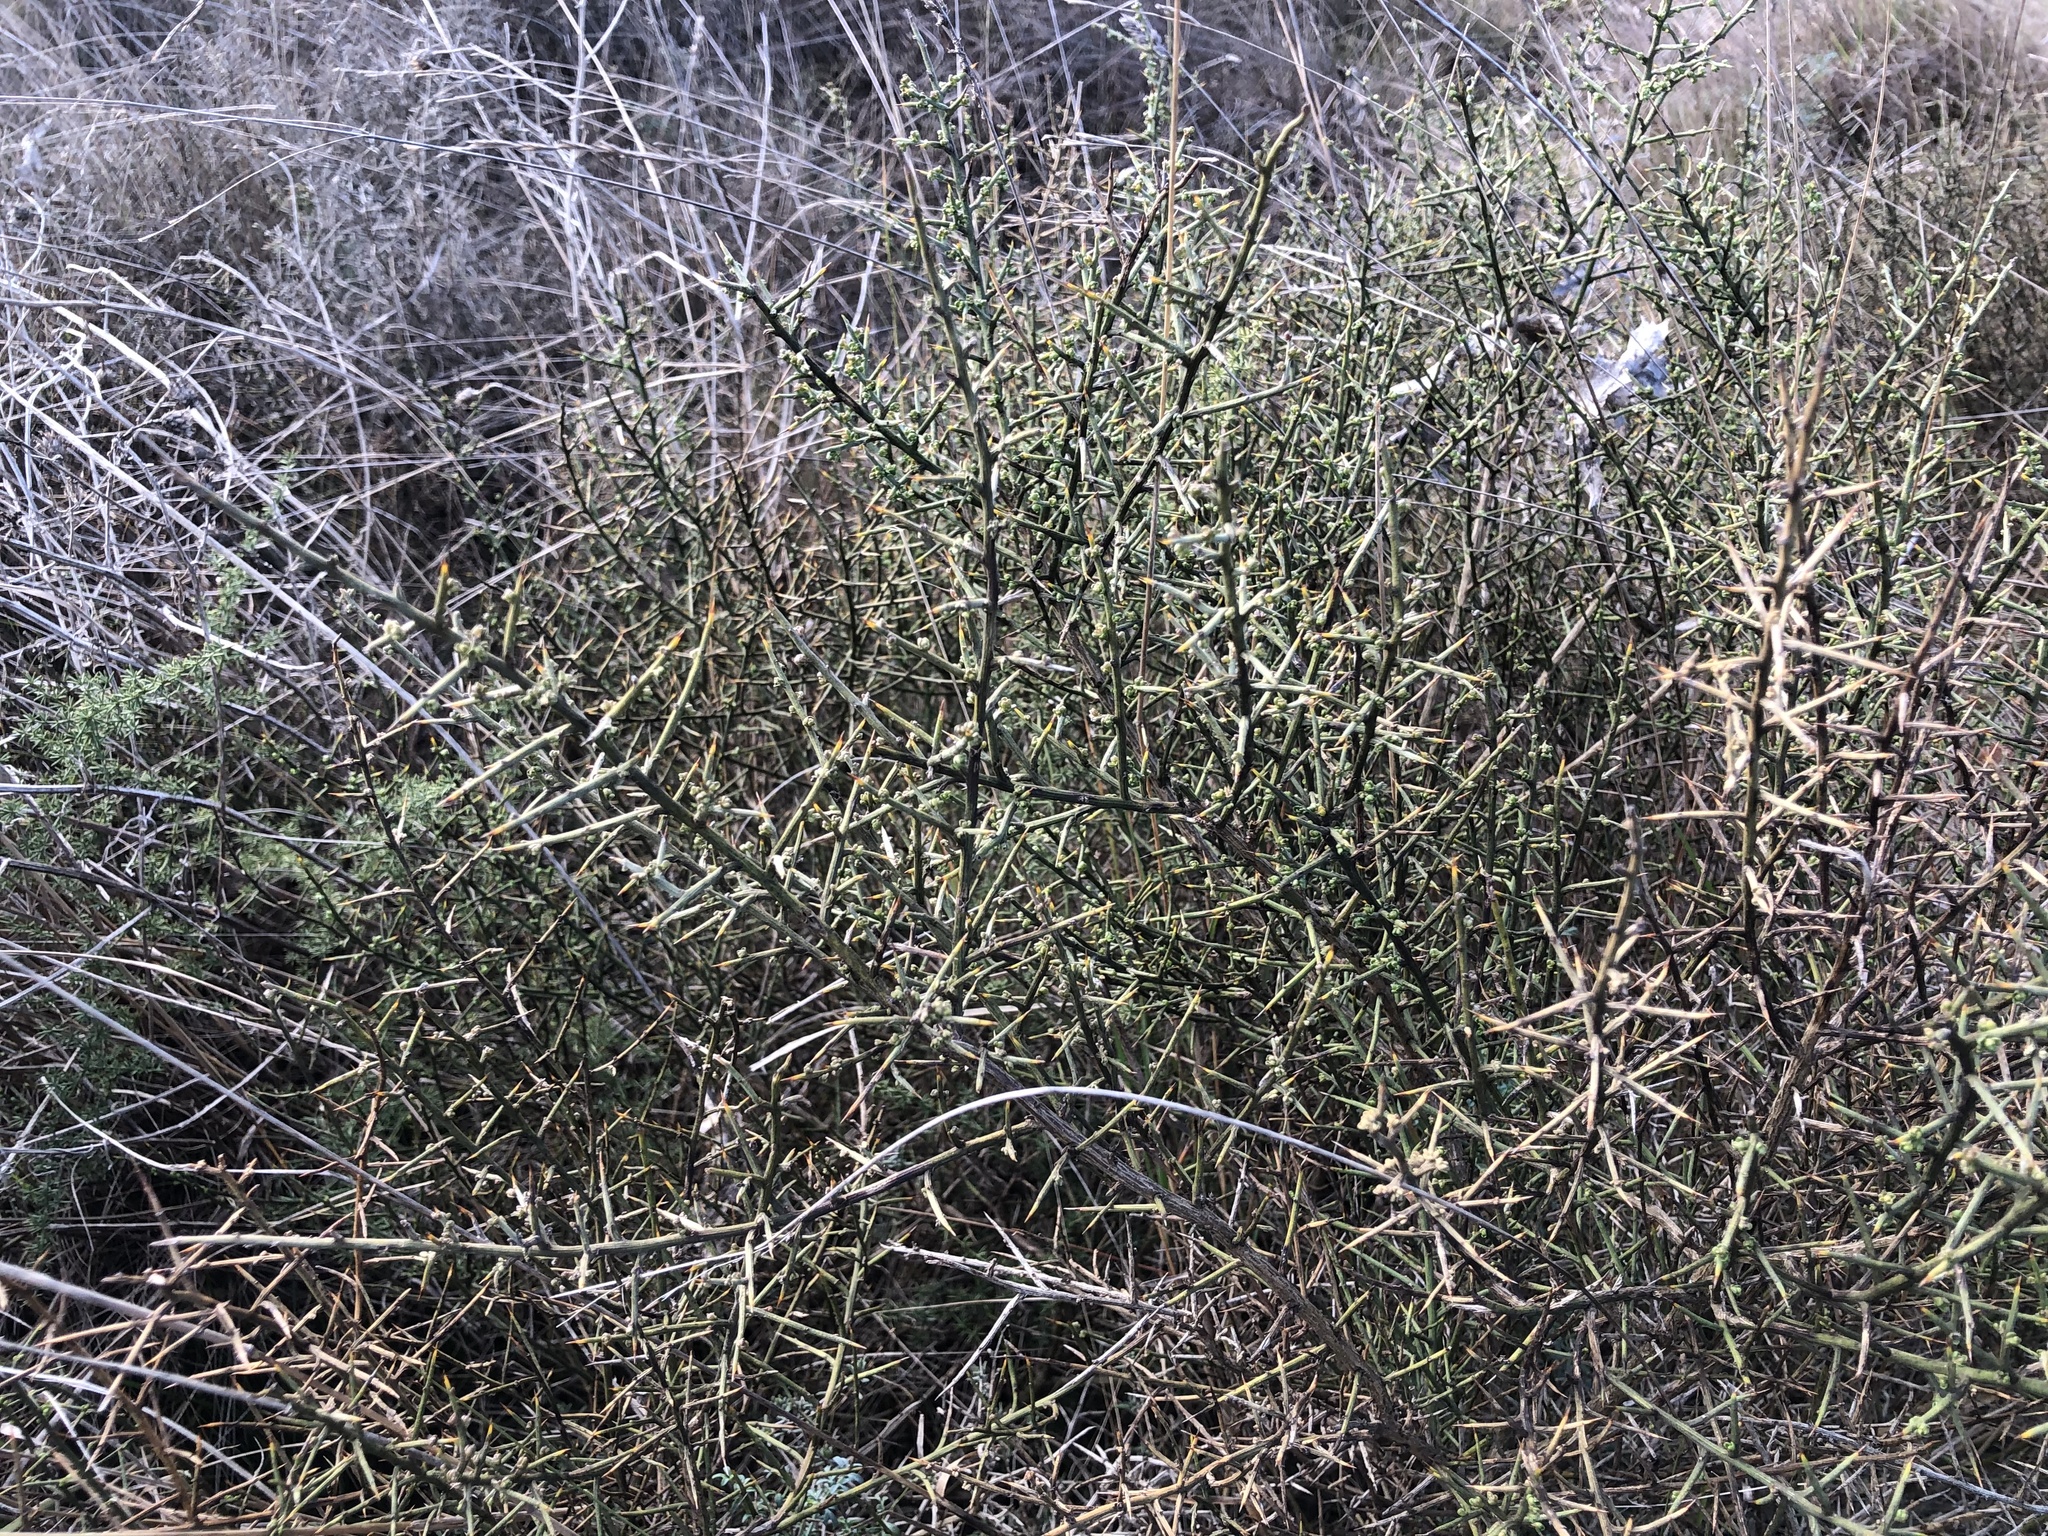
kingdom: Plantae
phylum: Tracheophyta
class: Magnoliopsida
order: Fabales
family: Fabaceae
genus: Genista
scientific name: Genista scorpius
